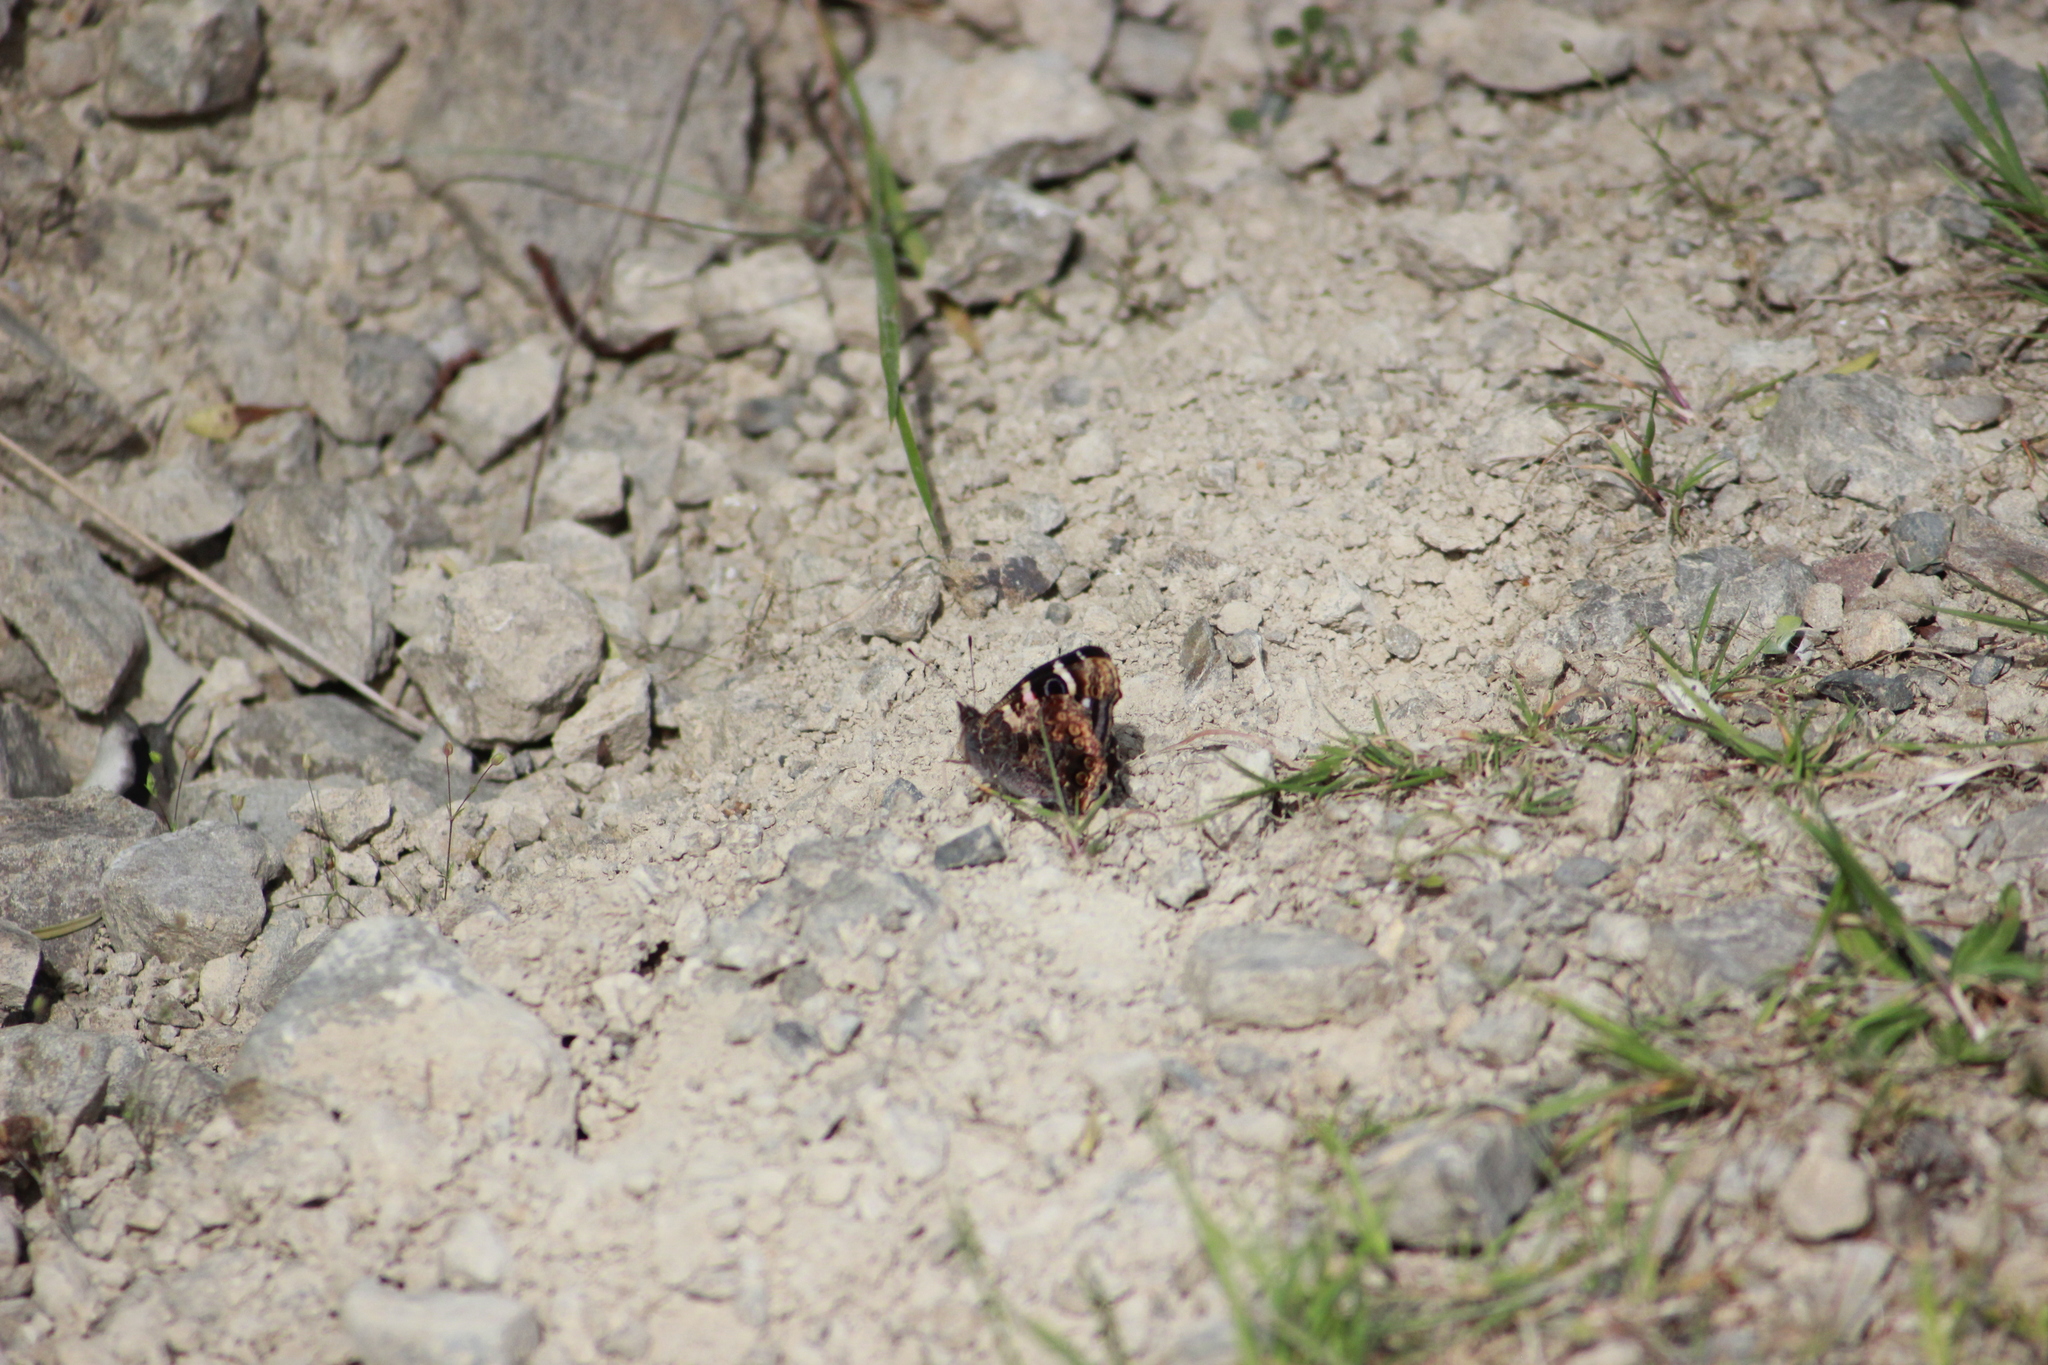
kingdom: Animalia
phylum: Arthropoda
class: Insecta
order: Lepidoptera
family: Nymphalidae
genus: Vanessa
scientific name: Vanessa gonerilla
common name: New zealand red admiral
